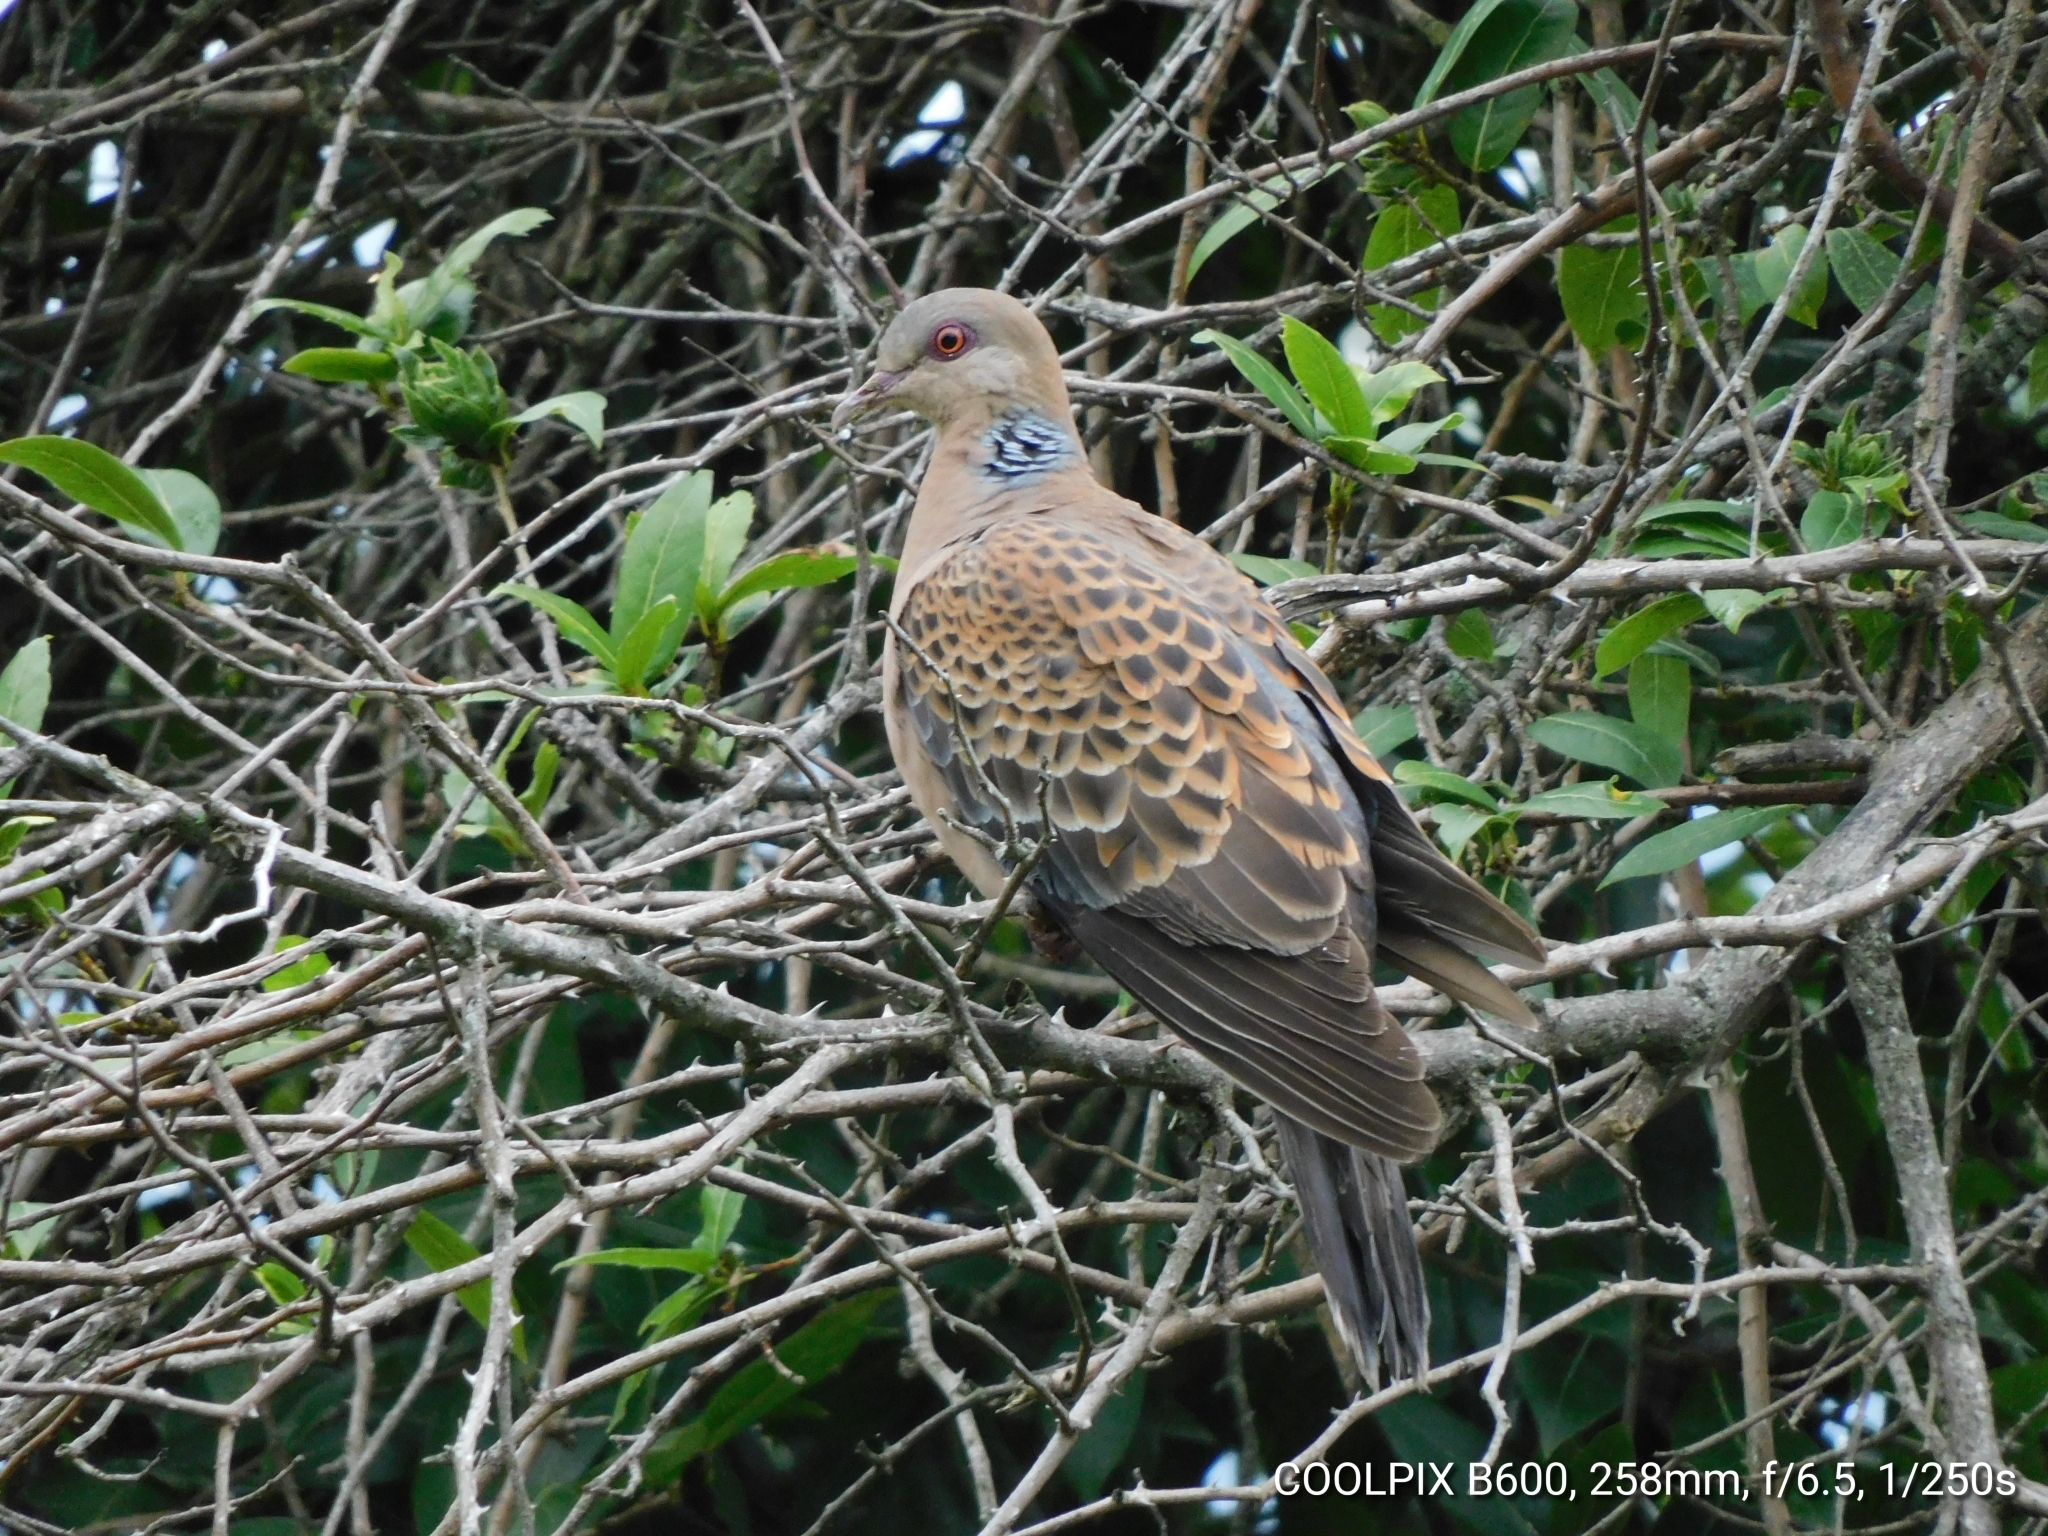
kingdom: Animalia
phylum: Chordata
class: Aves
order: Columbiformes
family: Columbidae
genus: Streptopelia
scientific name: Streptopelia orientalis
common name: Oriental turtle dove
